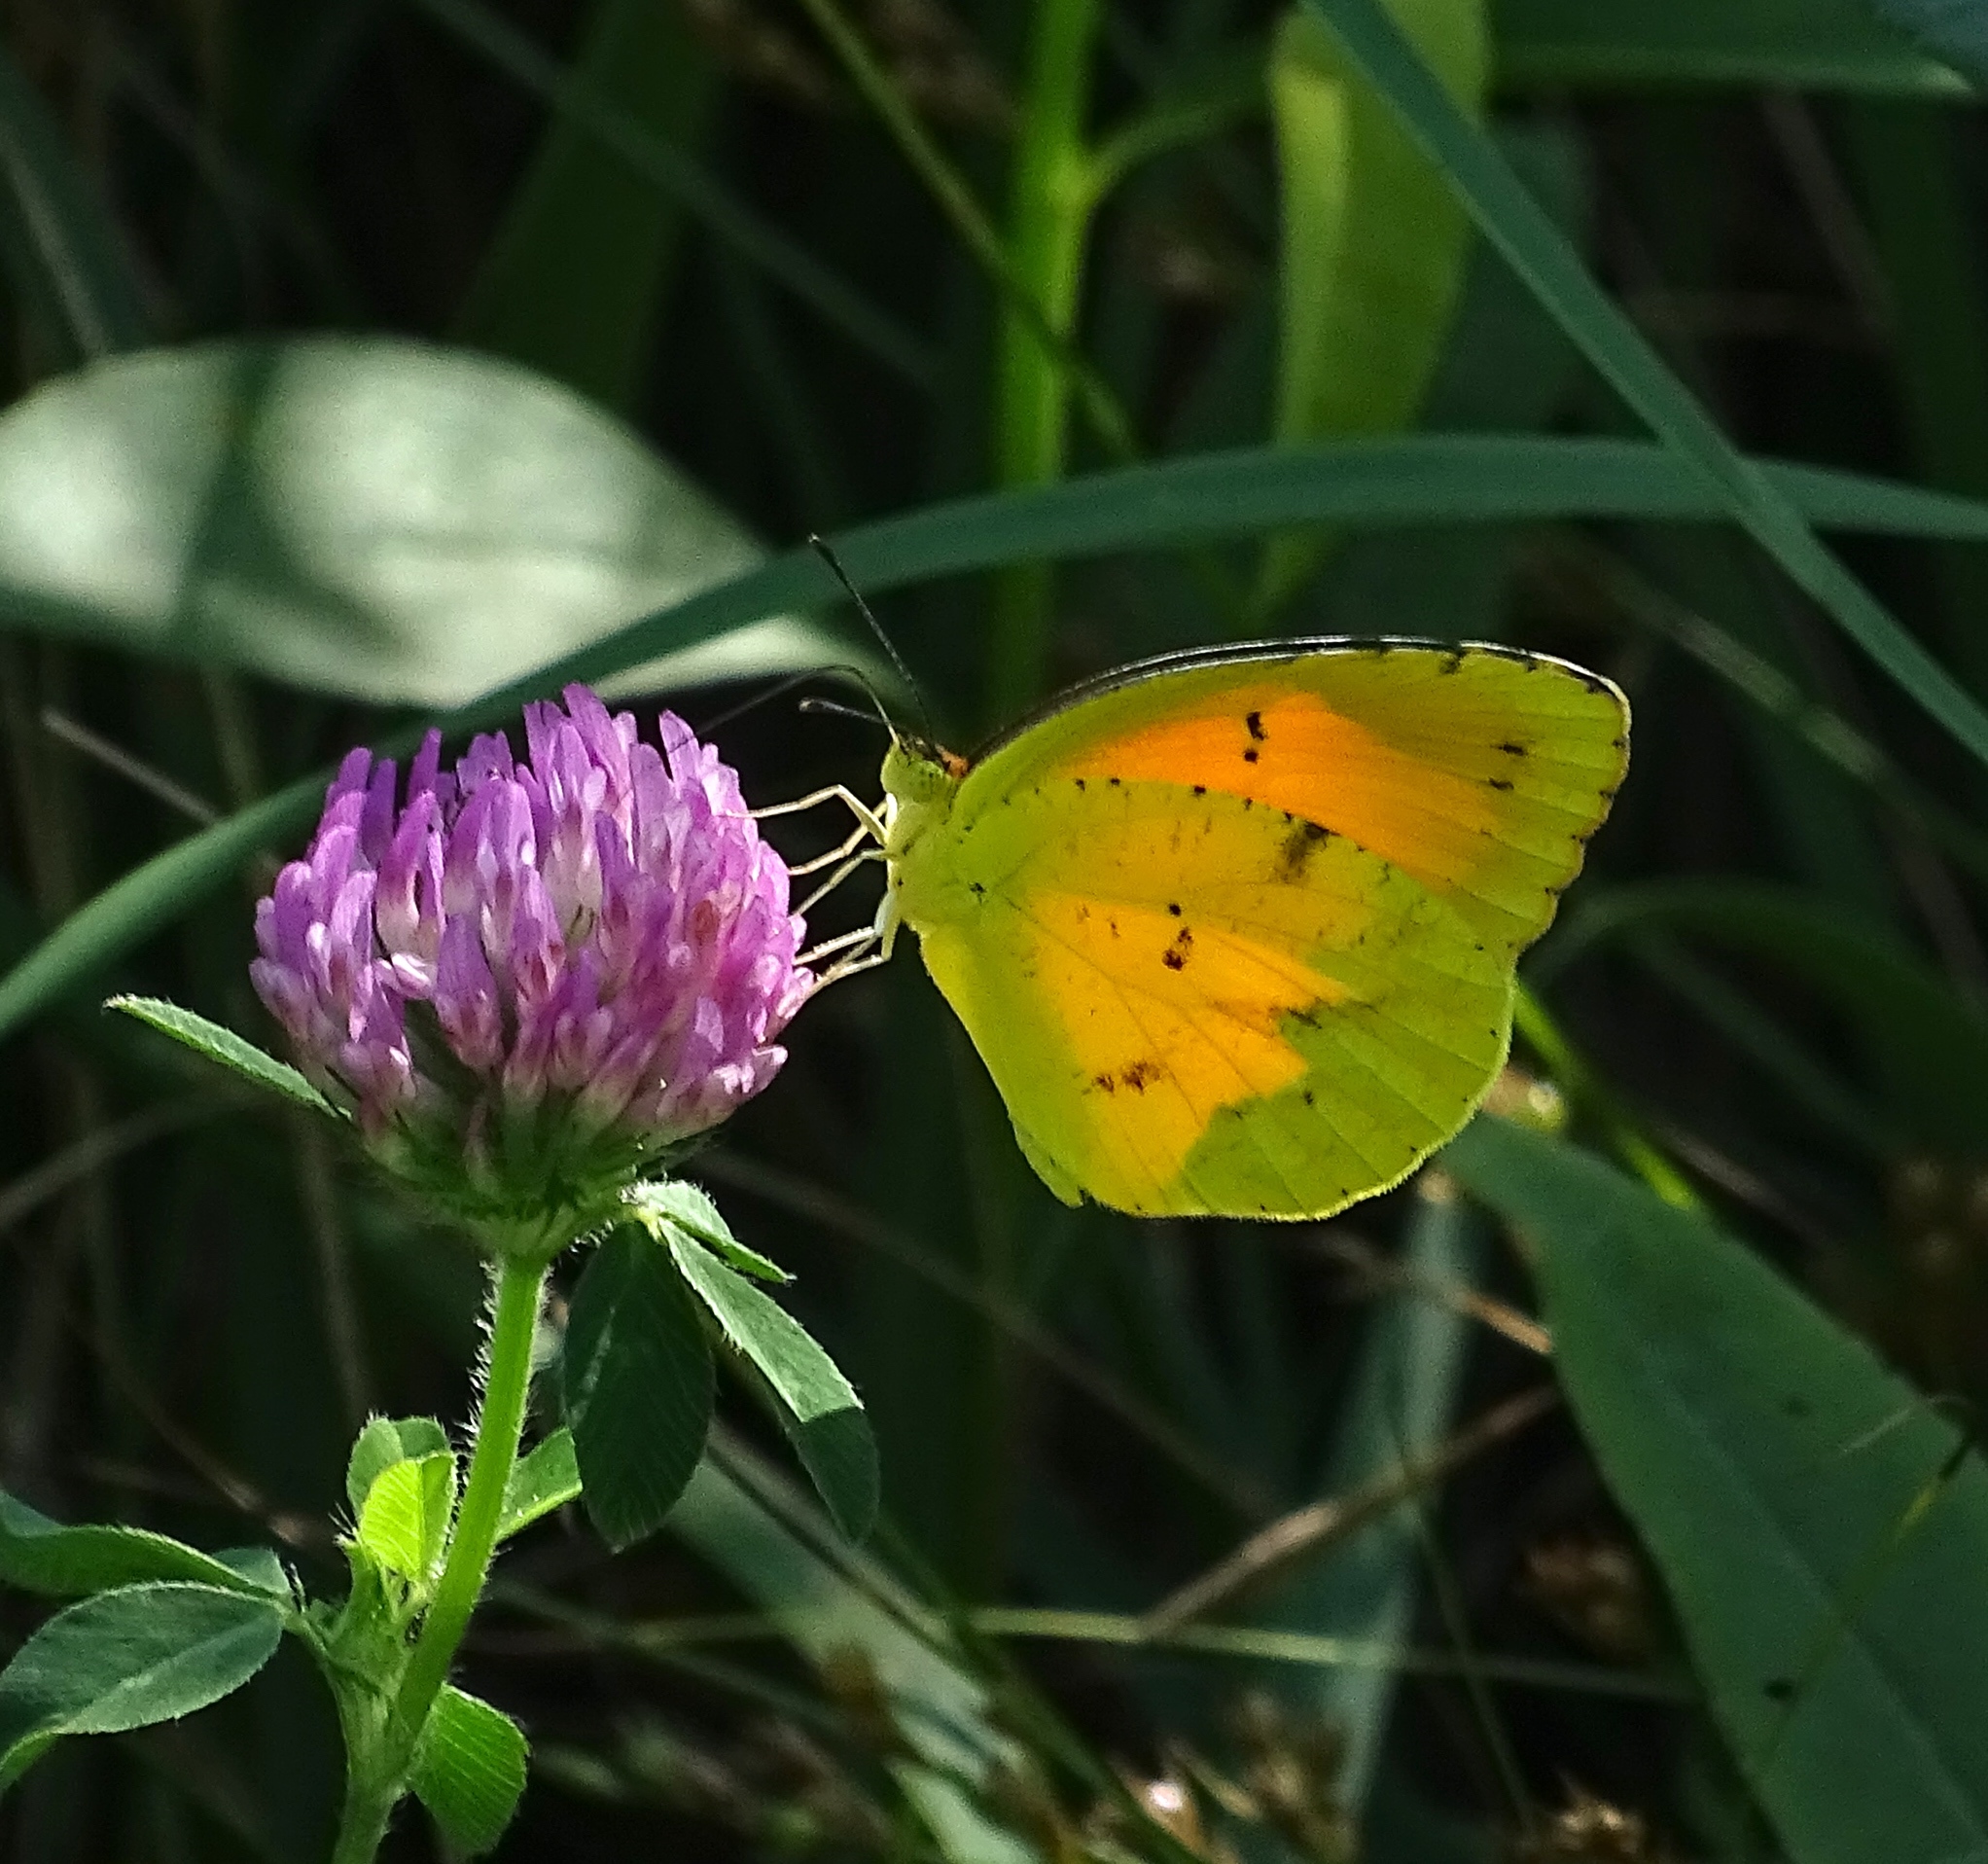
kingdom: Animalia
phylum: Arthropoda
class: Insecta
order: Lepidoptera
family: Pieridae
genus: Abaeis
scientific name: Abaeis nicippe
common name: Sleepy orange
